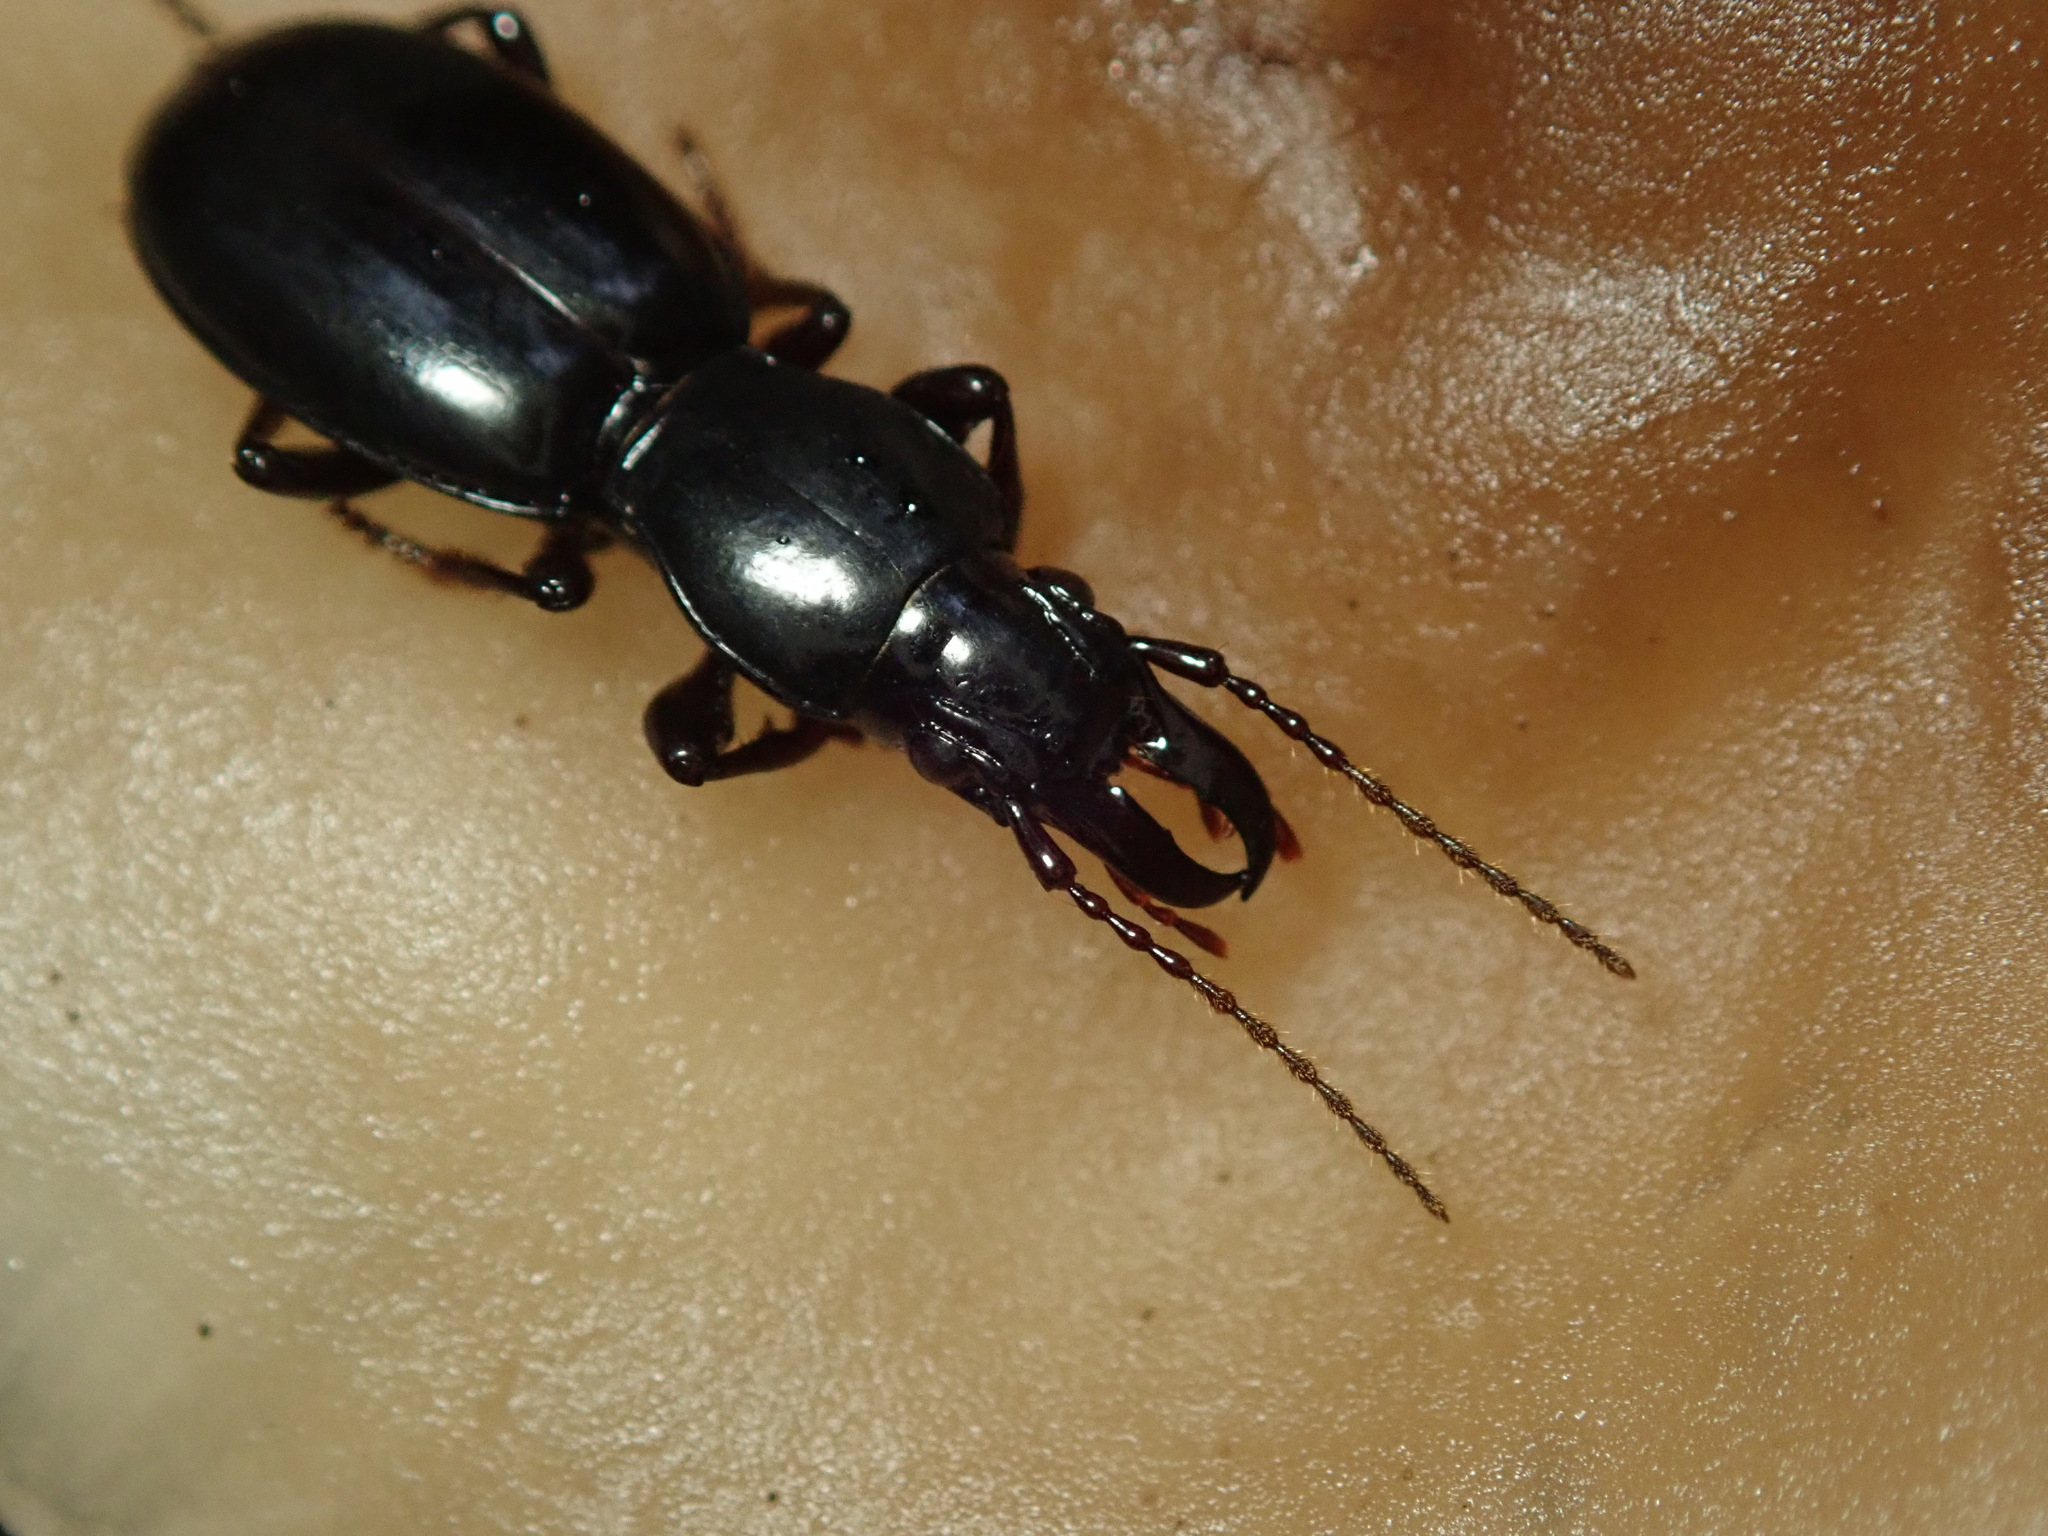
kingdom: Animalia
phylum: Arthropoda
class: Insecta
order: Coleoptera
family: Carabidae
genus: Promecognathus
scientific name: Promecognathus laevissimus
